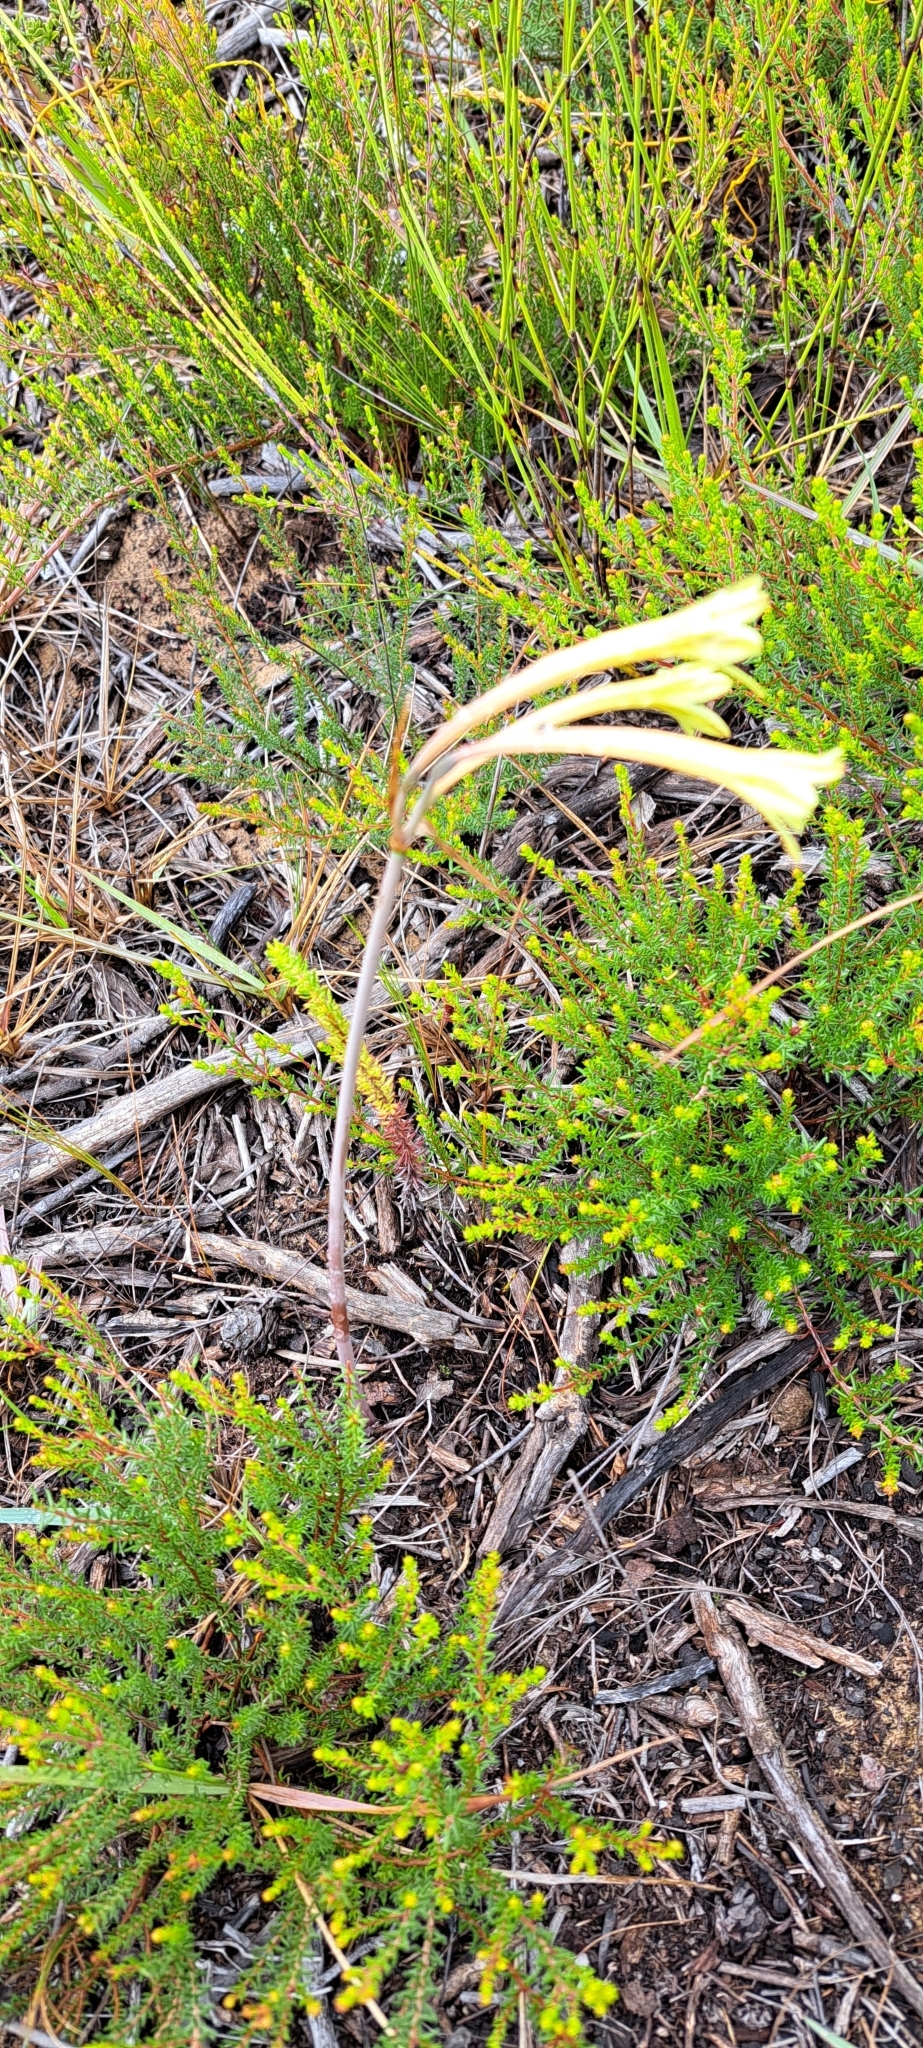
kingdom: Plantae
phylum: Tracheophyta
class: Liliopsida
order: Asparagales
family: Amaryllidaceae
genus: Cyrtanthus
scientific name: Cyrtanthus ochroleucus
